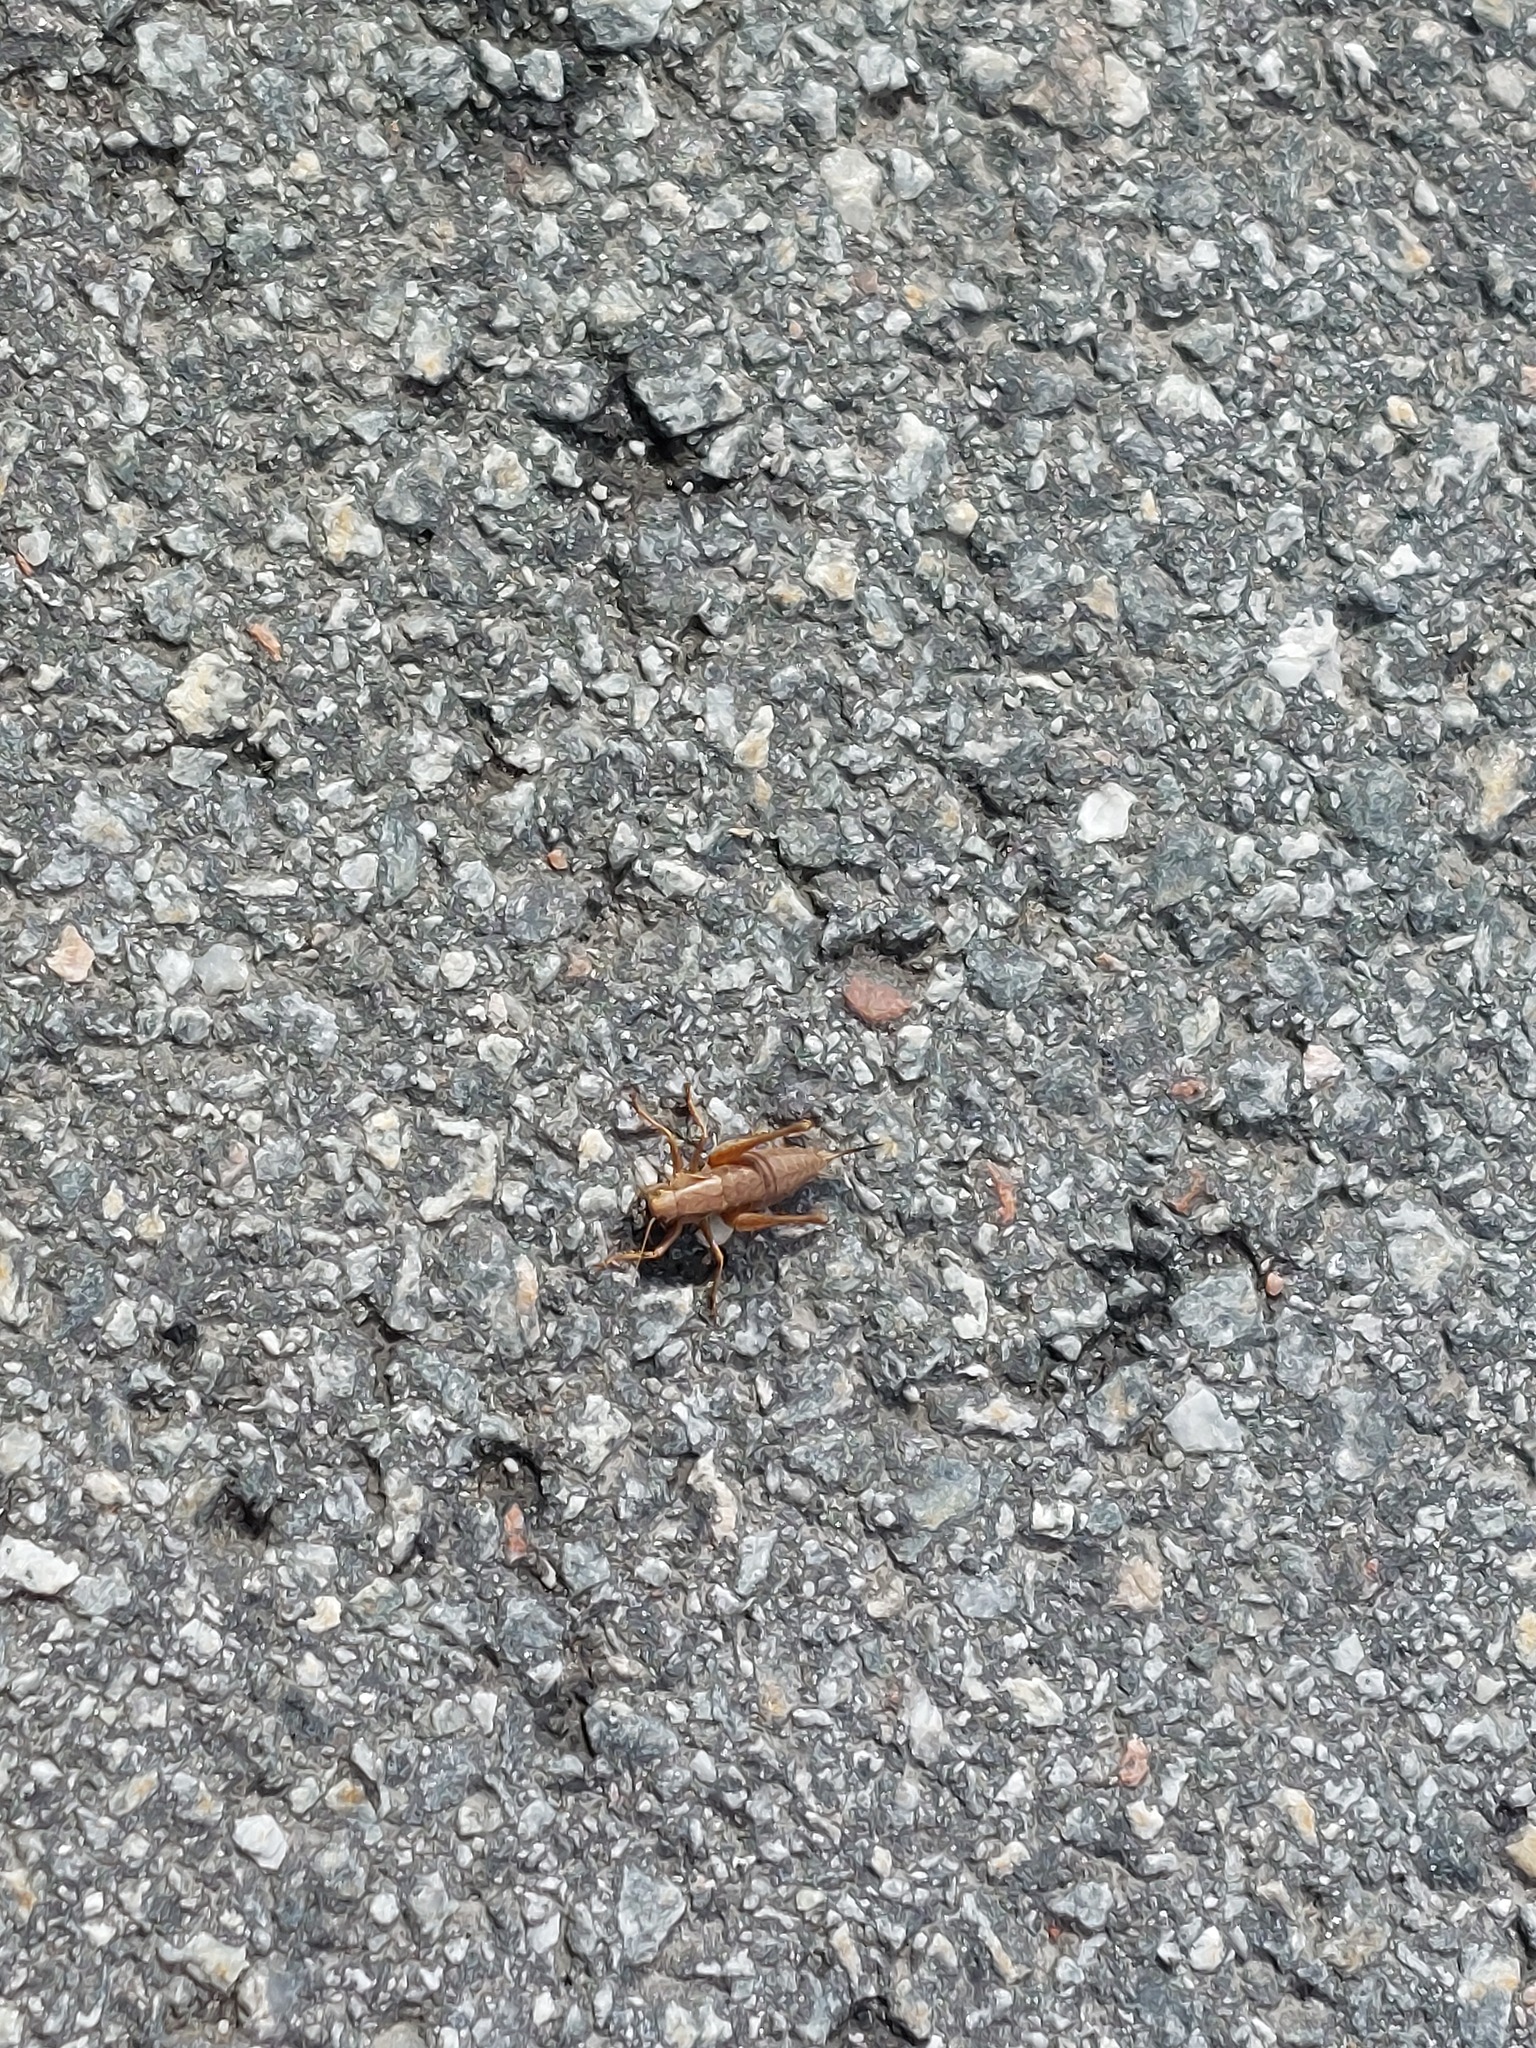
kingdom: Animalia
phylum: Arthropoda
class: Insecta
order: Orthoptera
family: Tettigoniidae
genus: Pholidoptera
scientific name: Pholidoptera griseoaptera
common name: Dark bush-cricket
